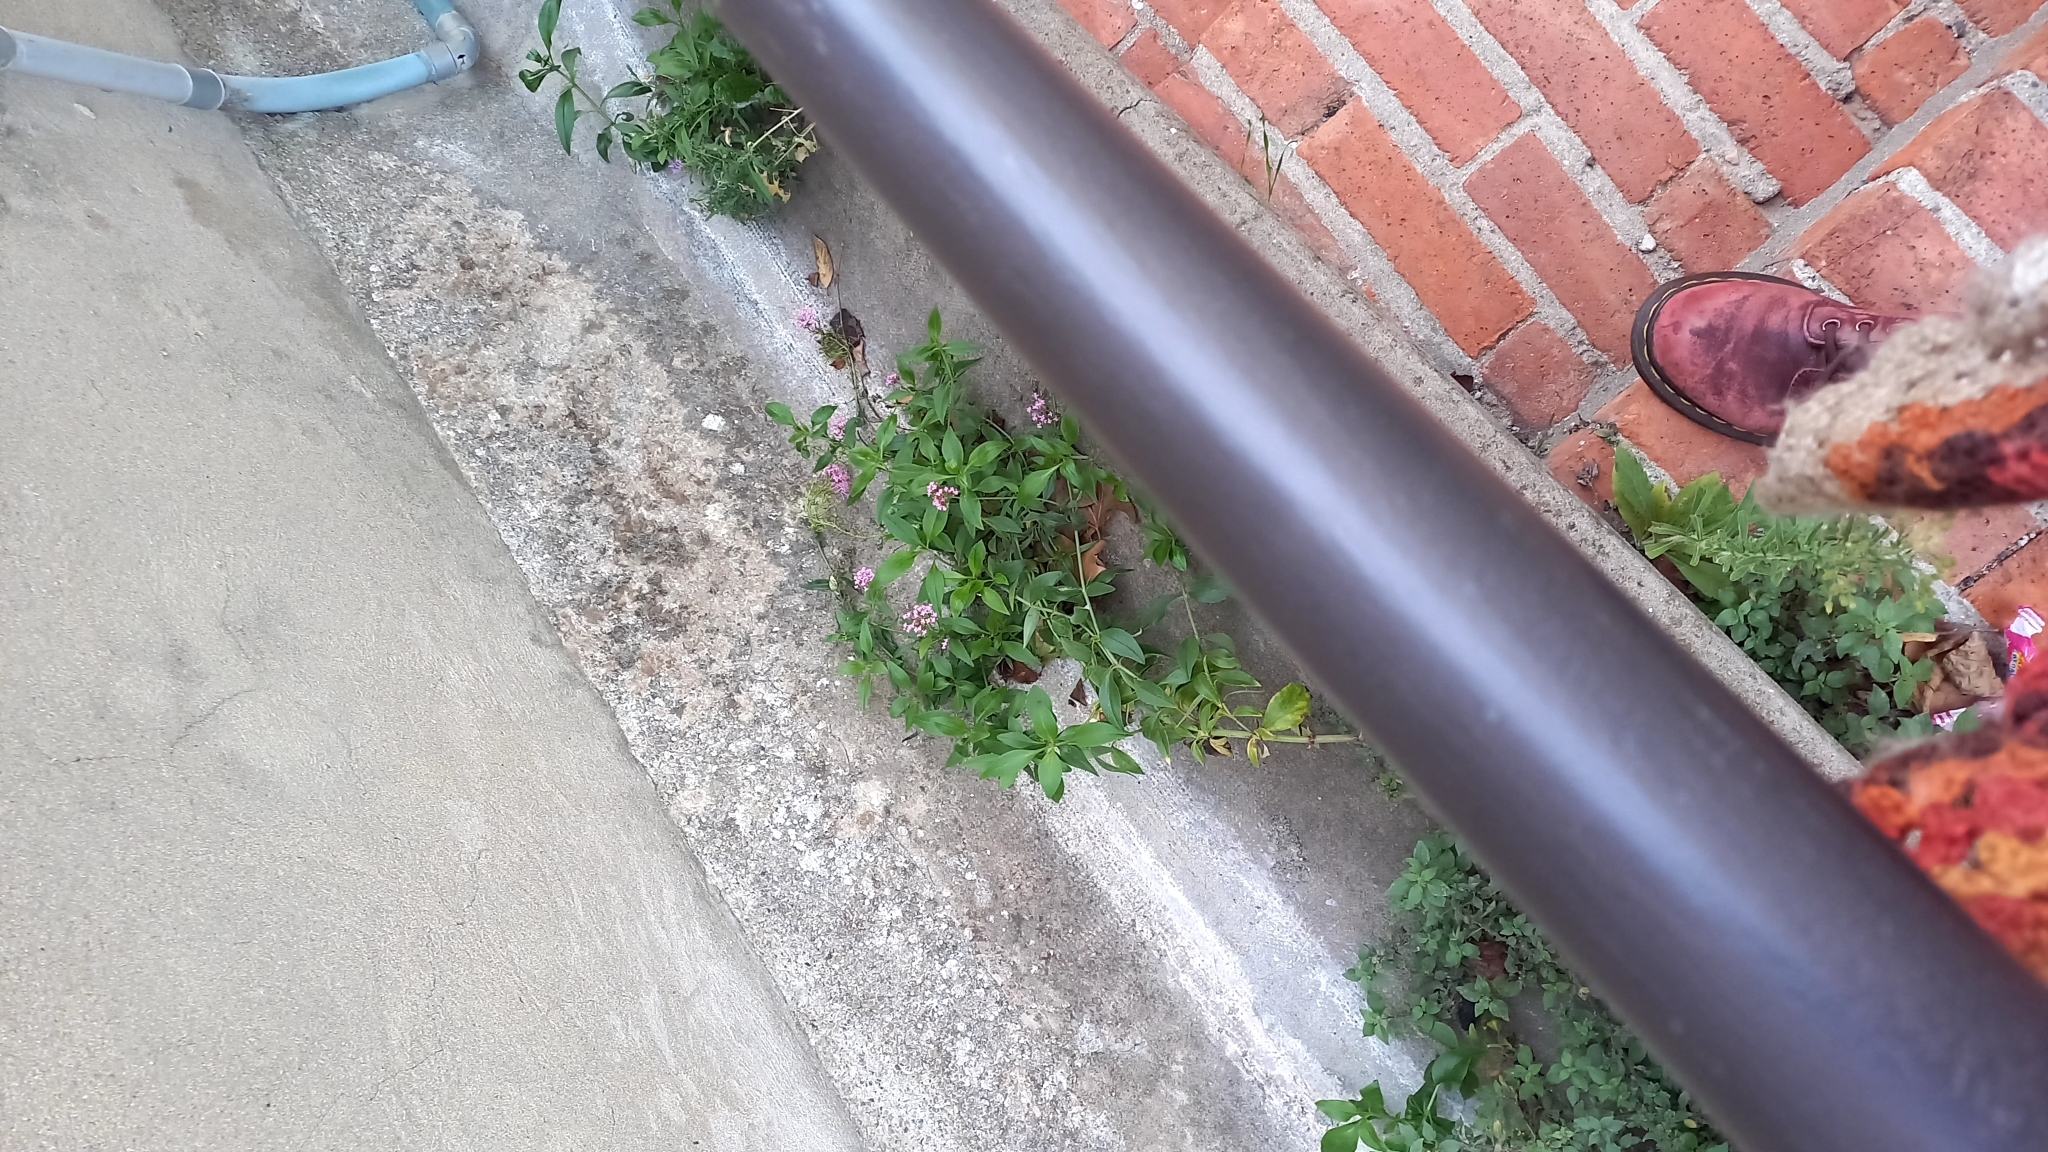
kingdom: Plantae
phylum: Tracheophyta
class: Magnoliopsida
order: Dipsacales
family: Caprifoliaceae
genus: Centranthus
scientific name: Centranthus ruber
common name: Red valerian
